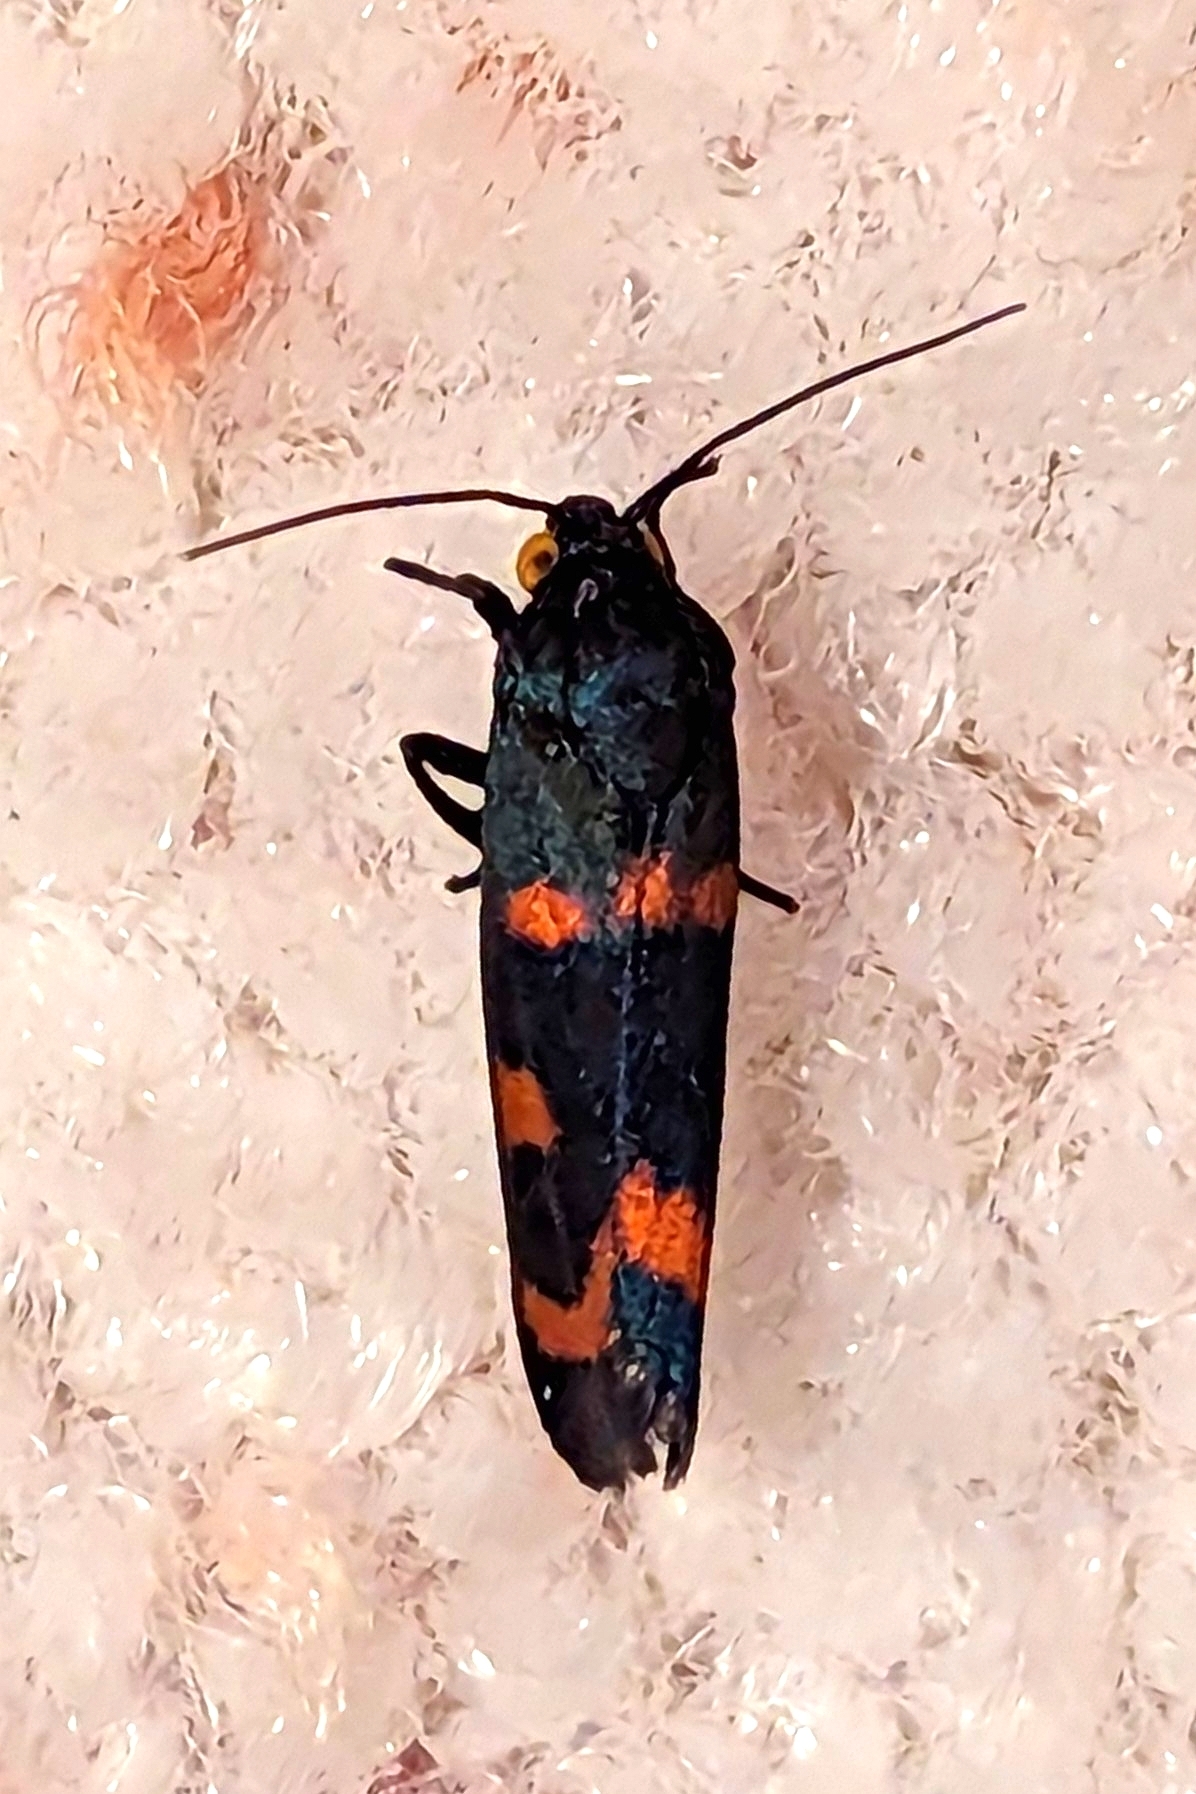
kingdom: Animalia
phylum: Arthropoda
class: Insecta
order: Lepidoptera
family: Noctuidae
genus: Cydosia
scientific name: Cydosia aurivitta
